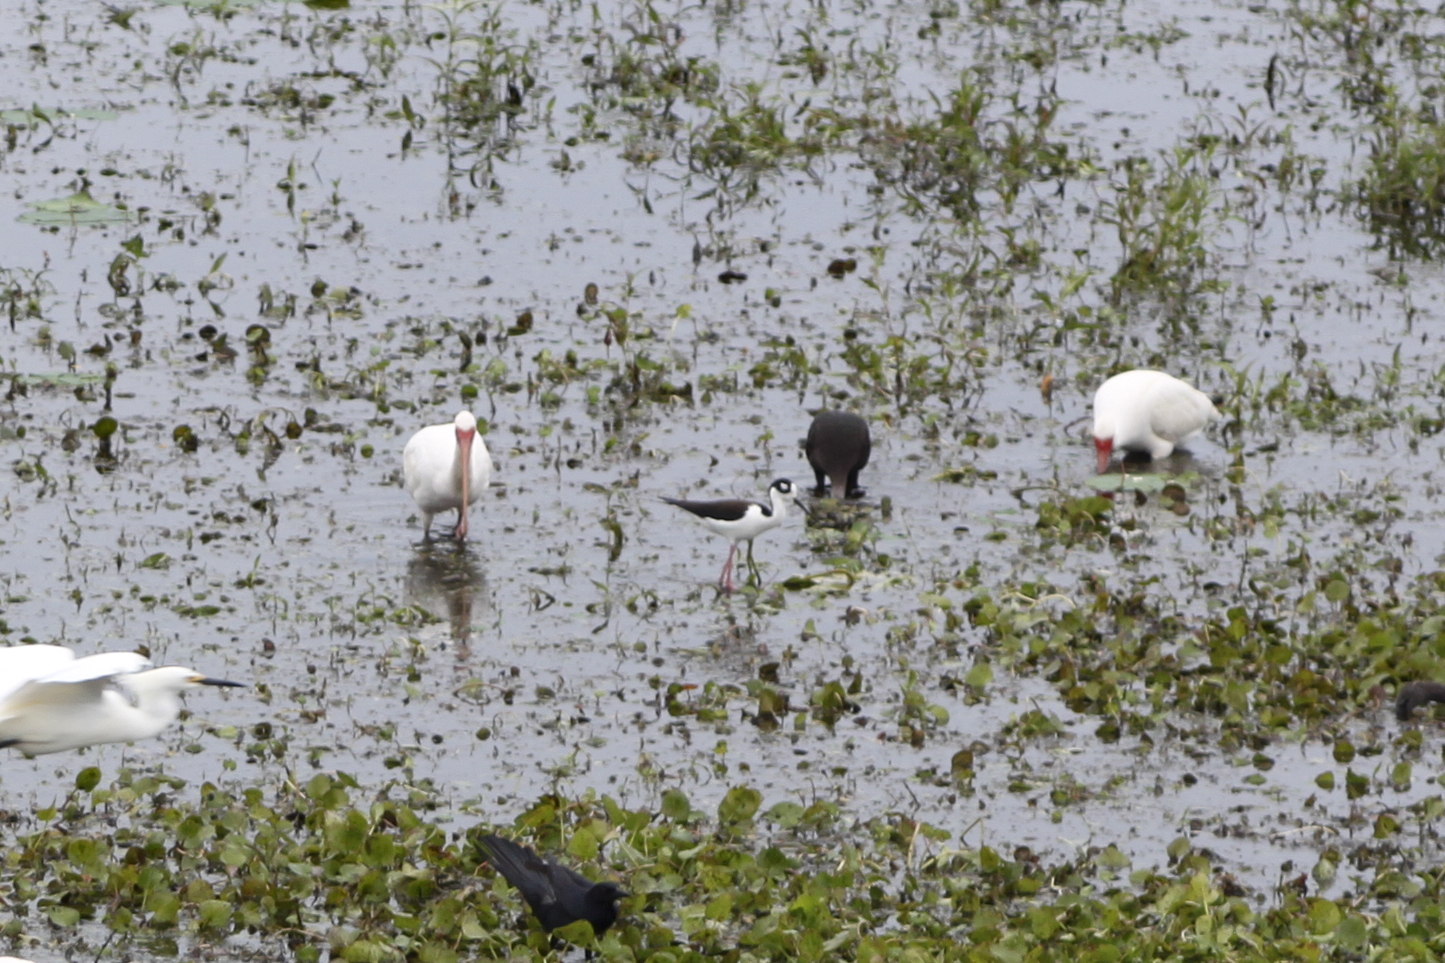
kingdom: Animalia
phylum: Chordata
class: Aves
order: Charadriiformes
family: Recurvirostridae
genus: Himantopus
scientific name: Himantopus mexicanus
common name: Black-necked stilt
